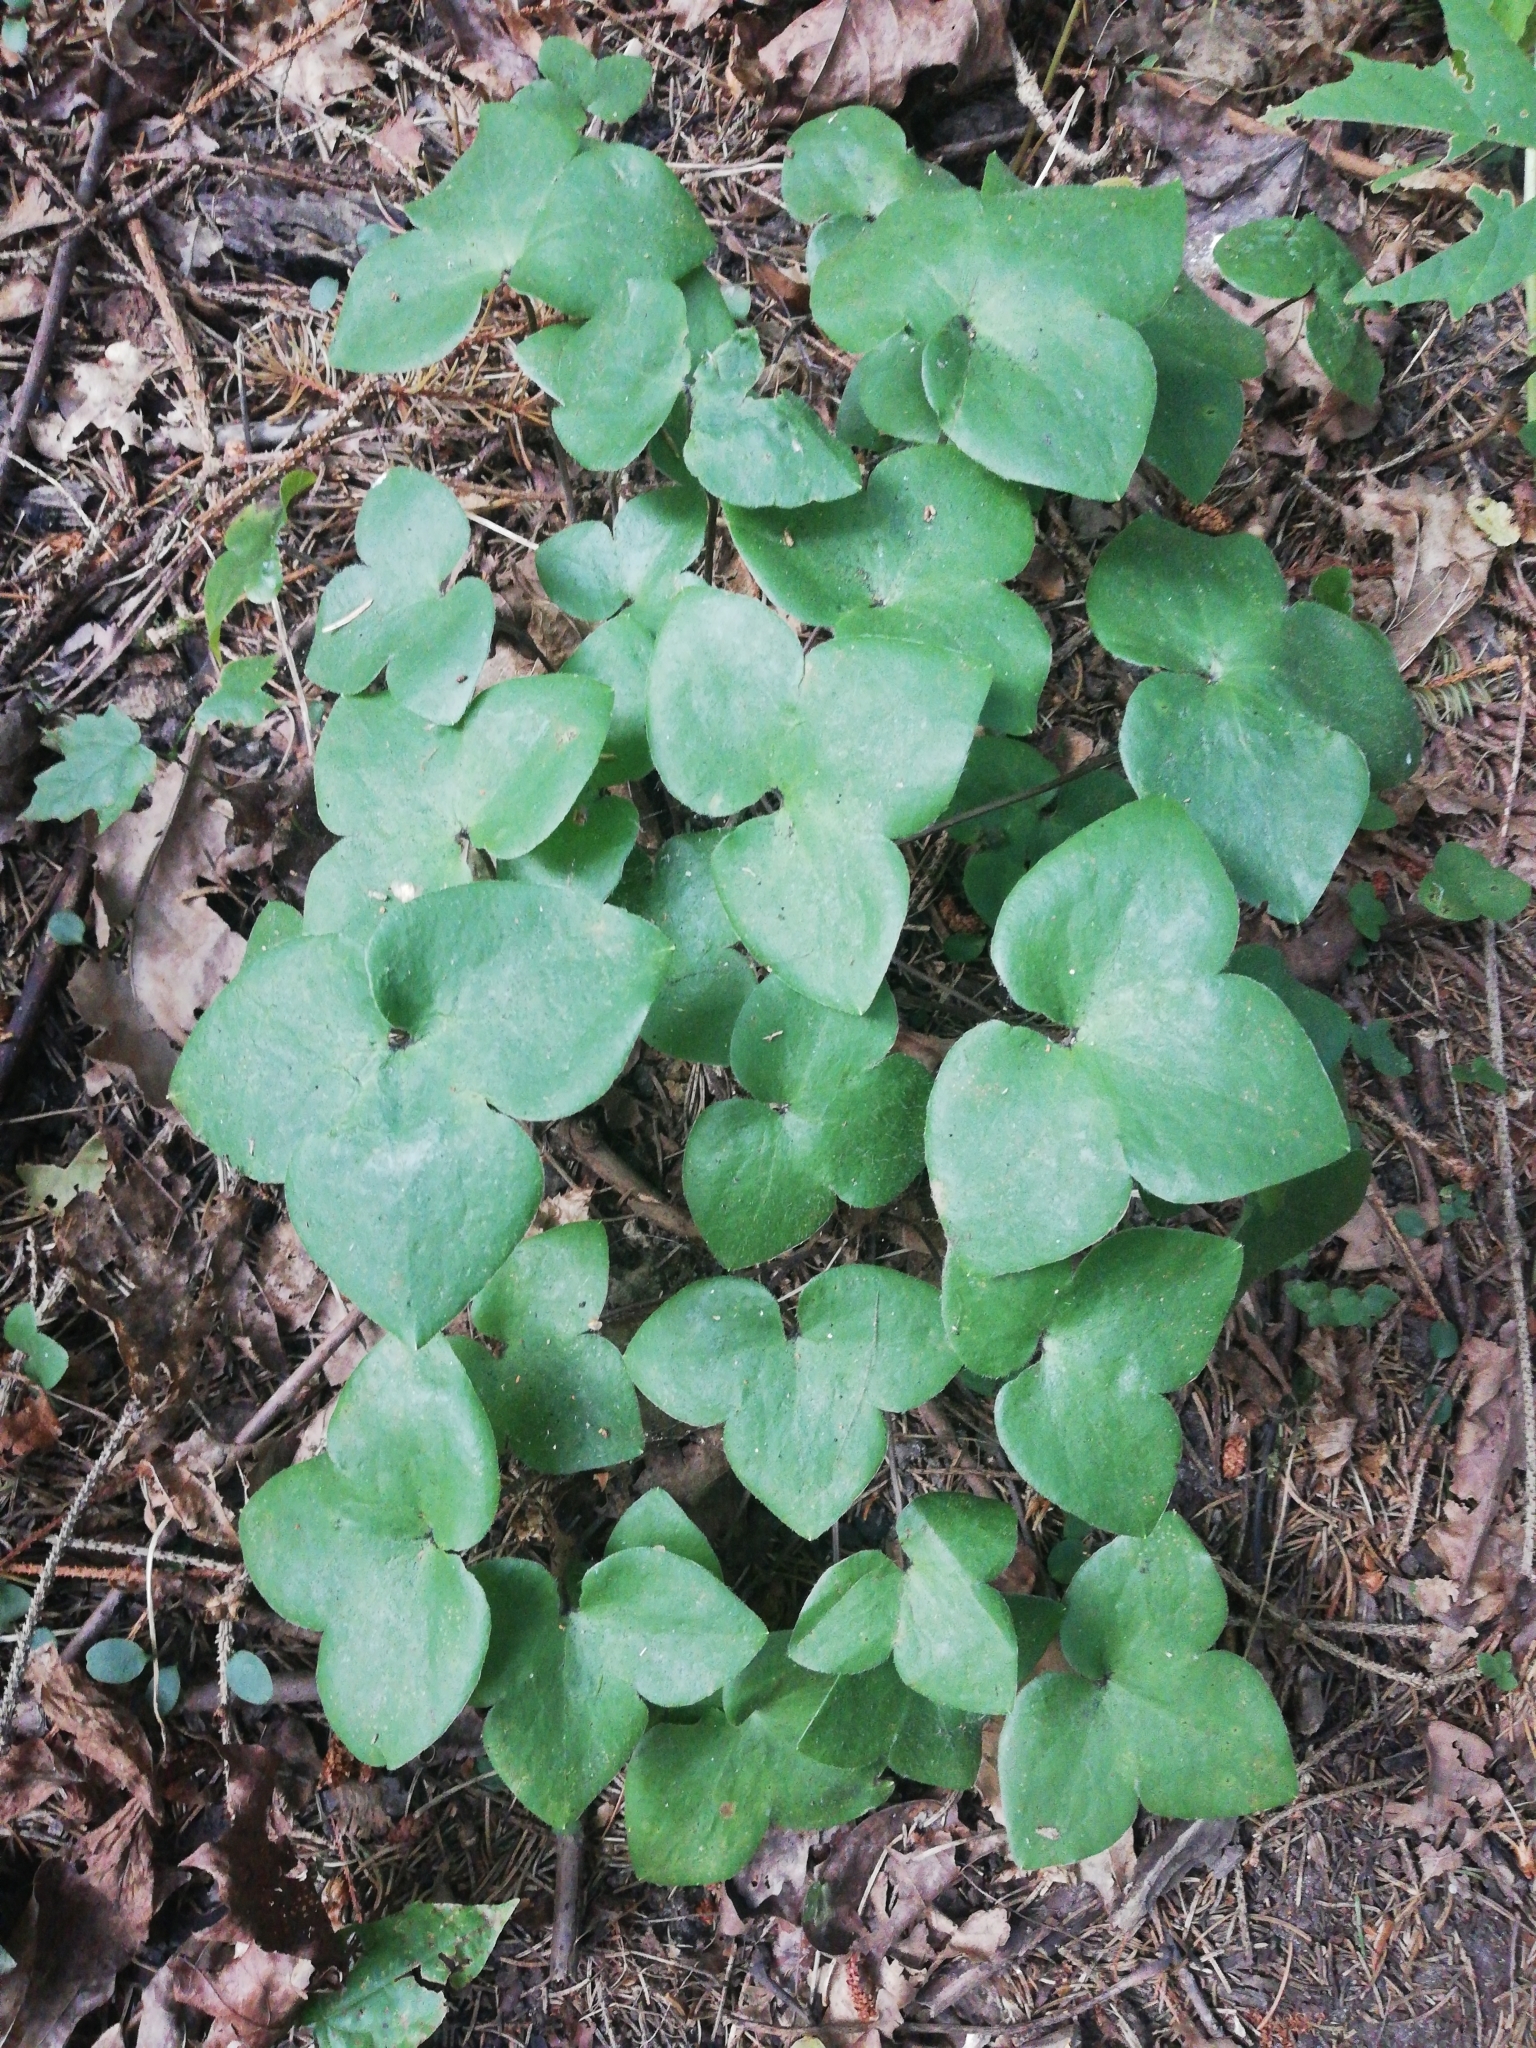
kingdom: Plantae
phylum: Tracheophyta
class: Magnoliopsida
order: Ranunculales
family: Ranunculaceae
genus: Hepatica
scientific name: Hepatica nobilis
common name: Liverleaf
